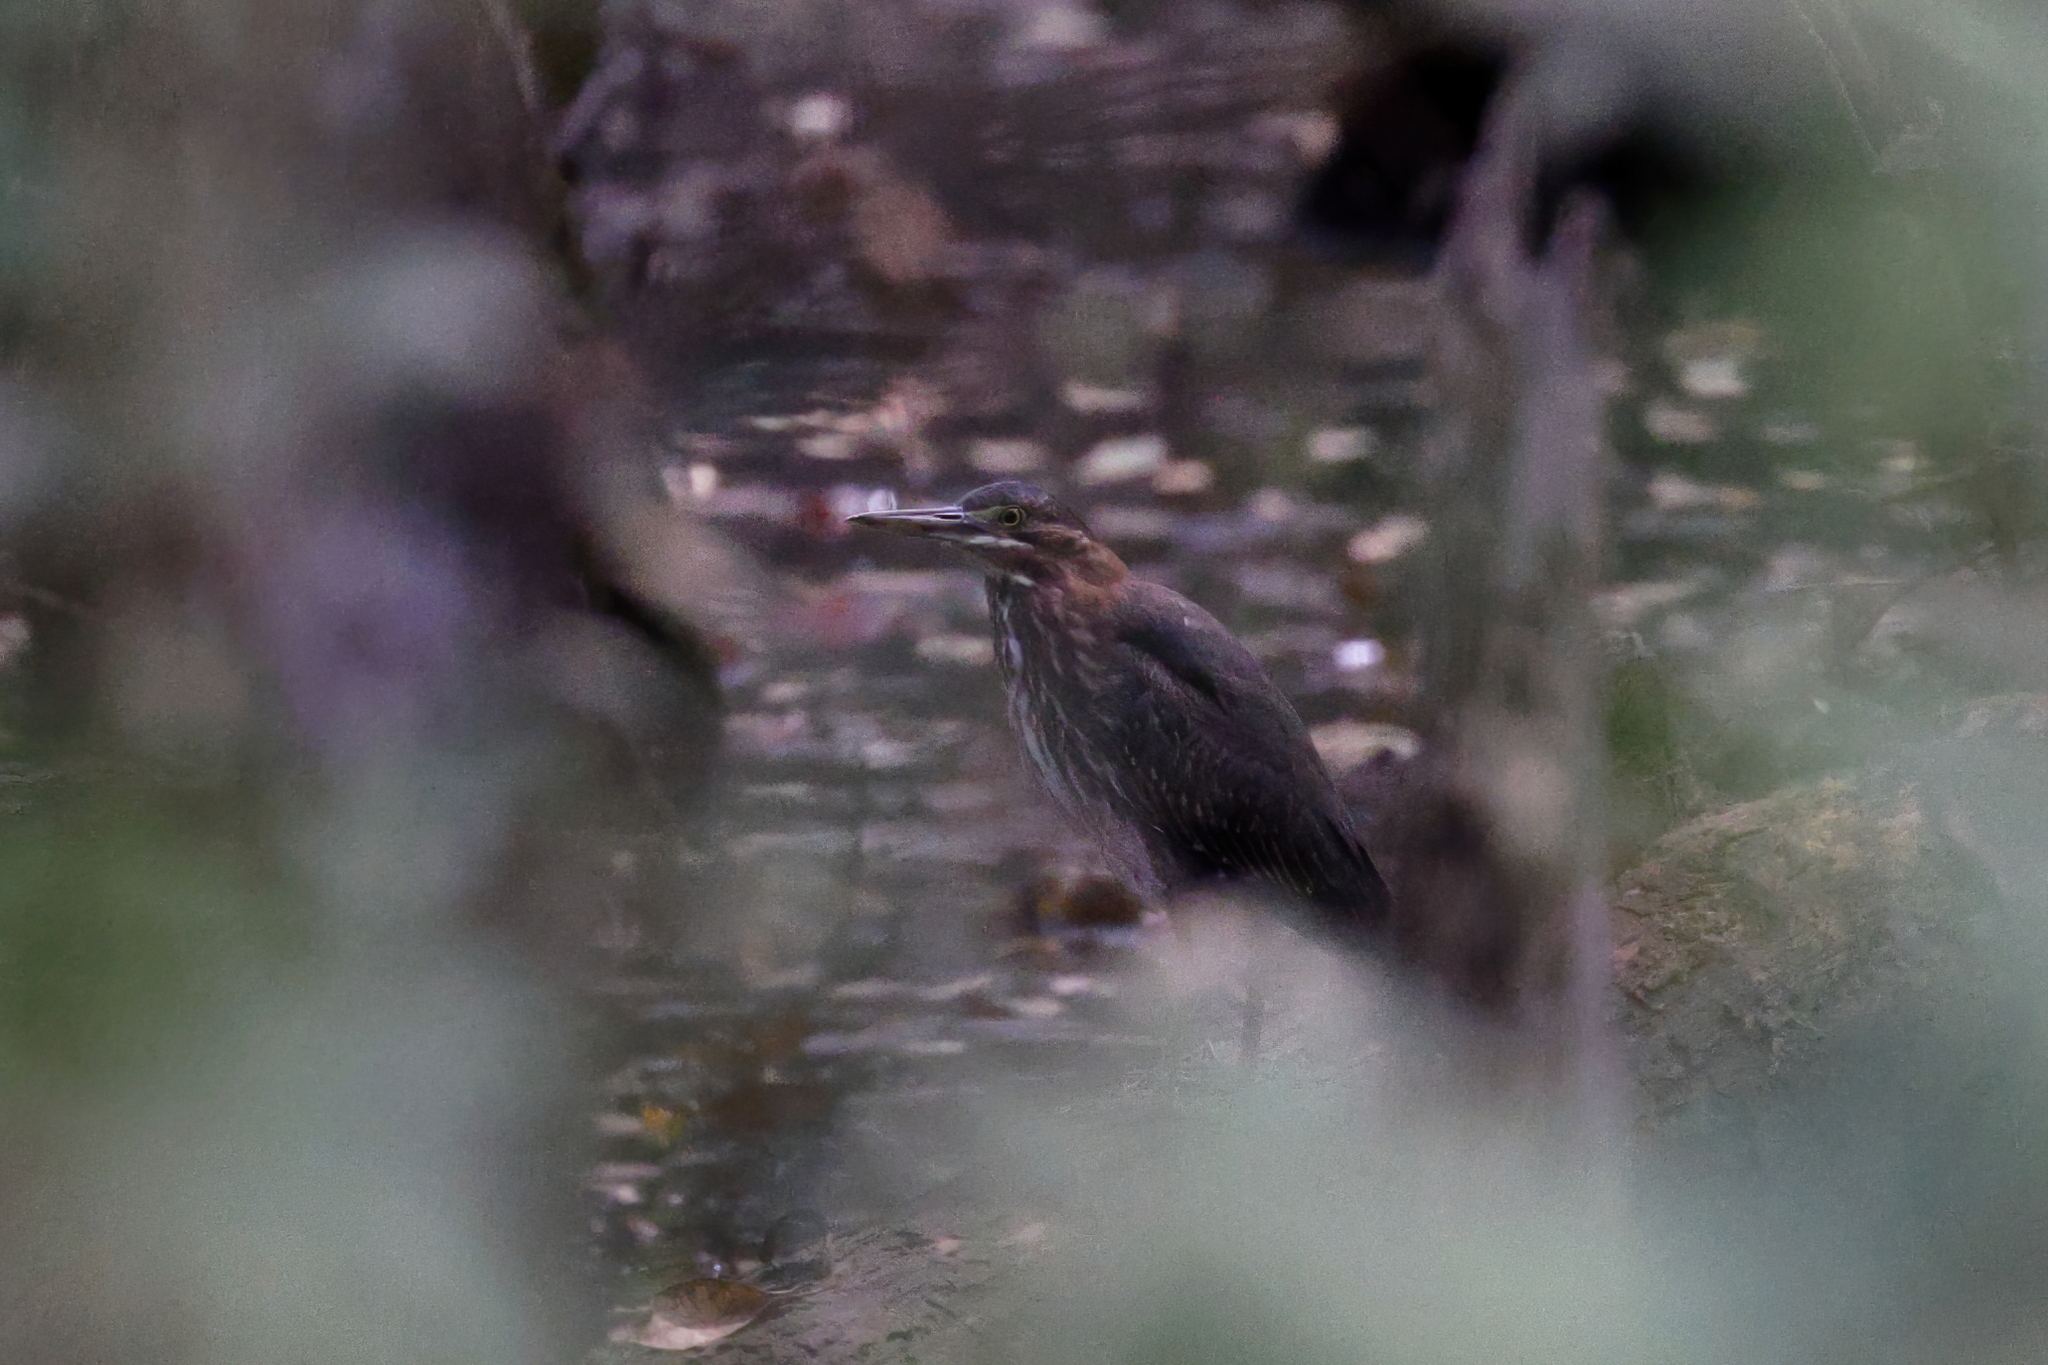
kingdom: Animalia
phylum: Chordata
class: Aves
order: Pelecaniformes
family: Ardeidae
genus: Butorides
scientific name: Butorides virescens
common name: Green heron
